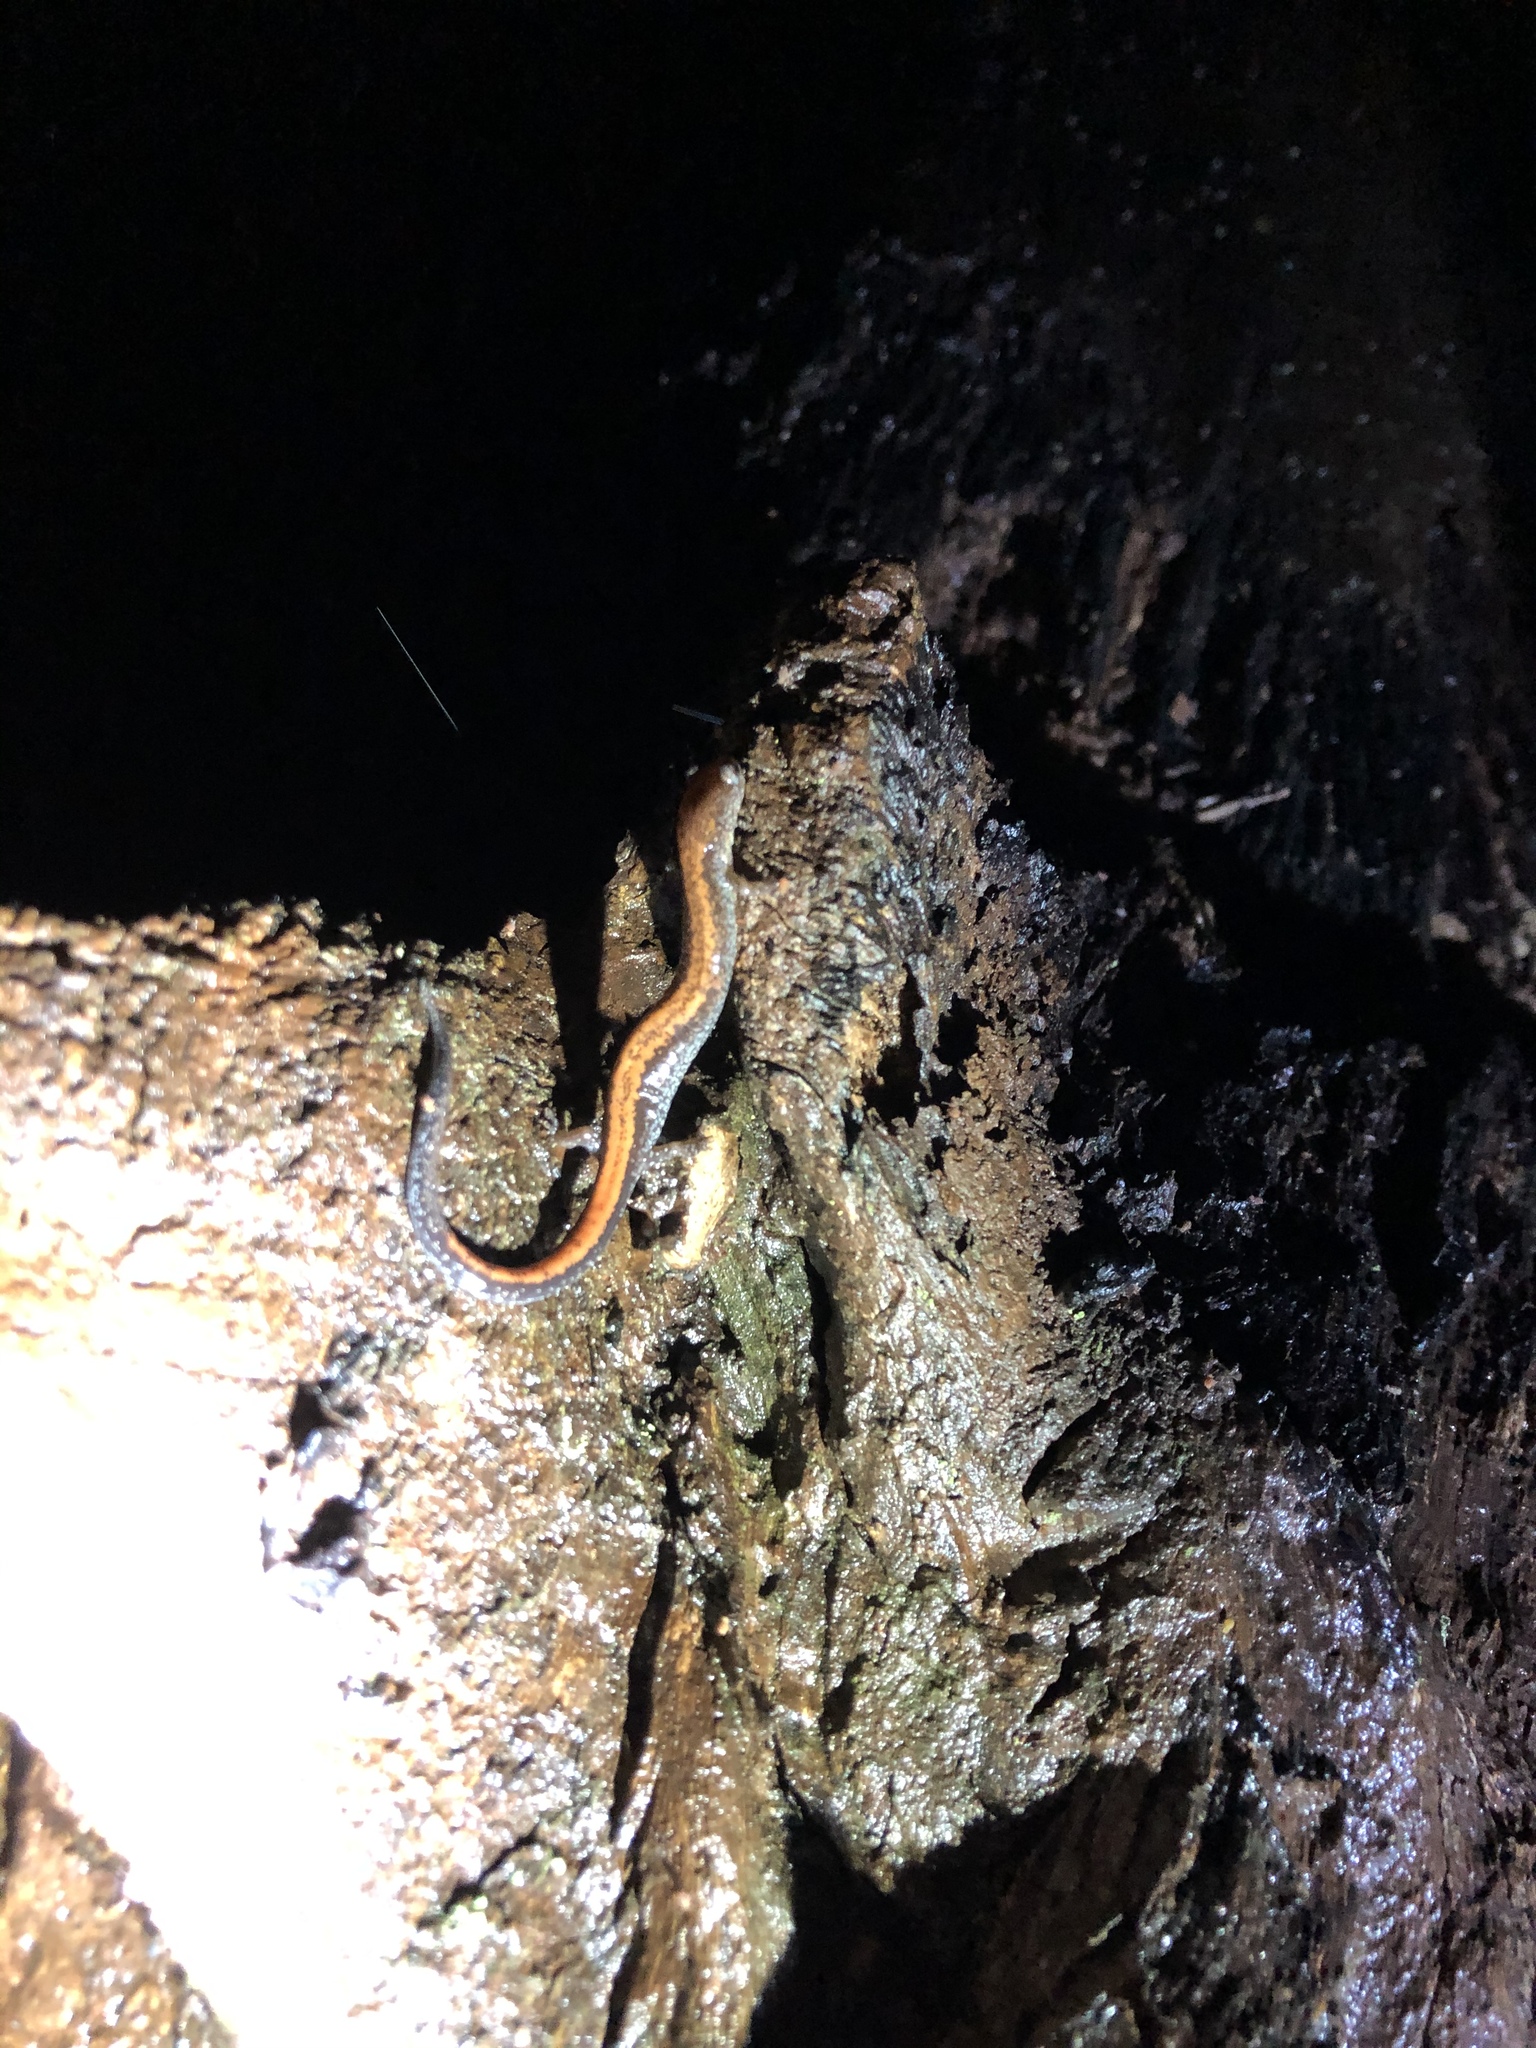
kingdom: Animalia
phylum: Chordata
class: Amphibia
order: Caudata
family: Plethodontidae
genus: Plethodon
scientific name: Plethodon cinereus
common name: Redback salamander
